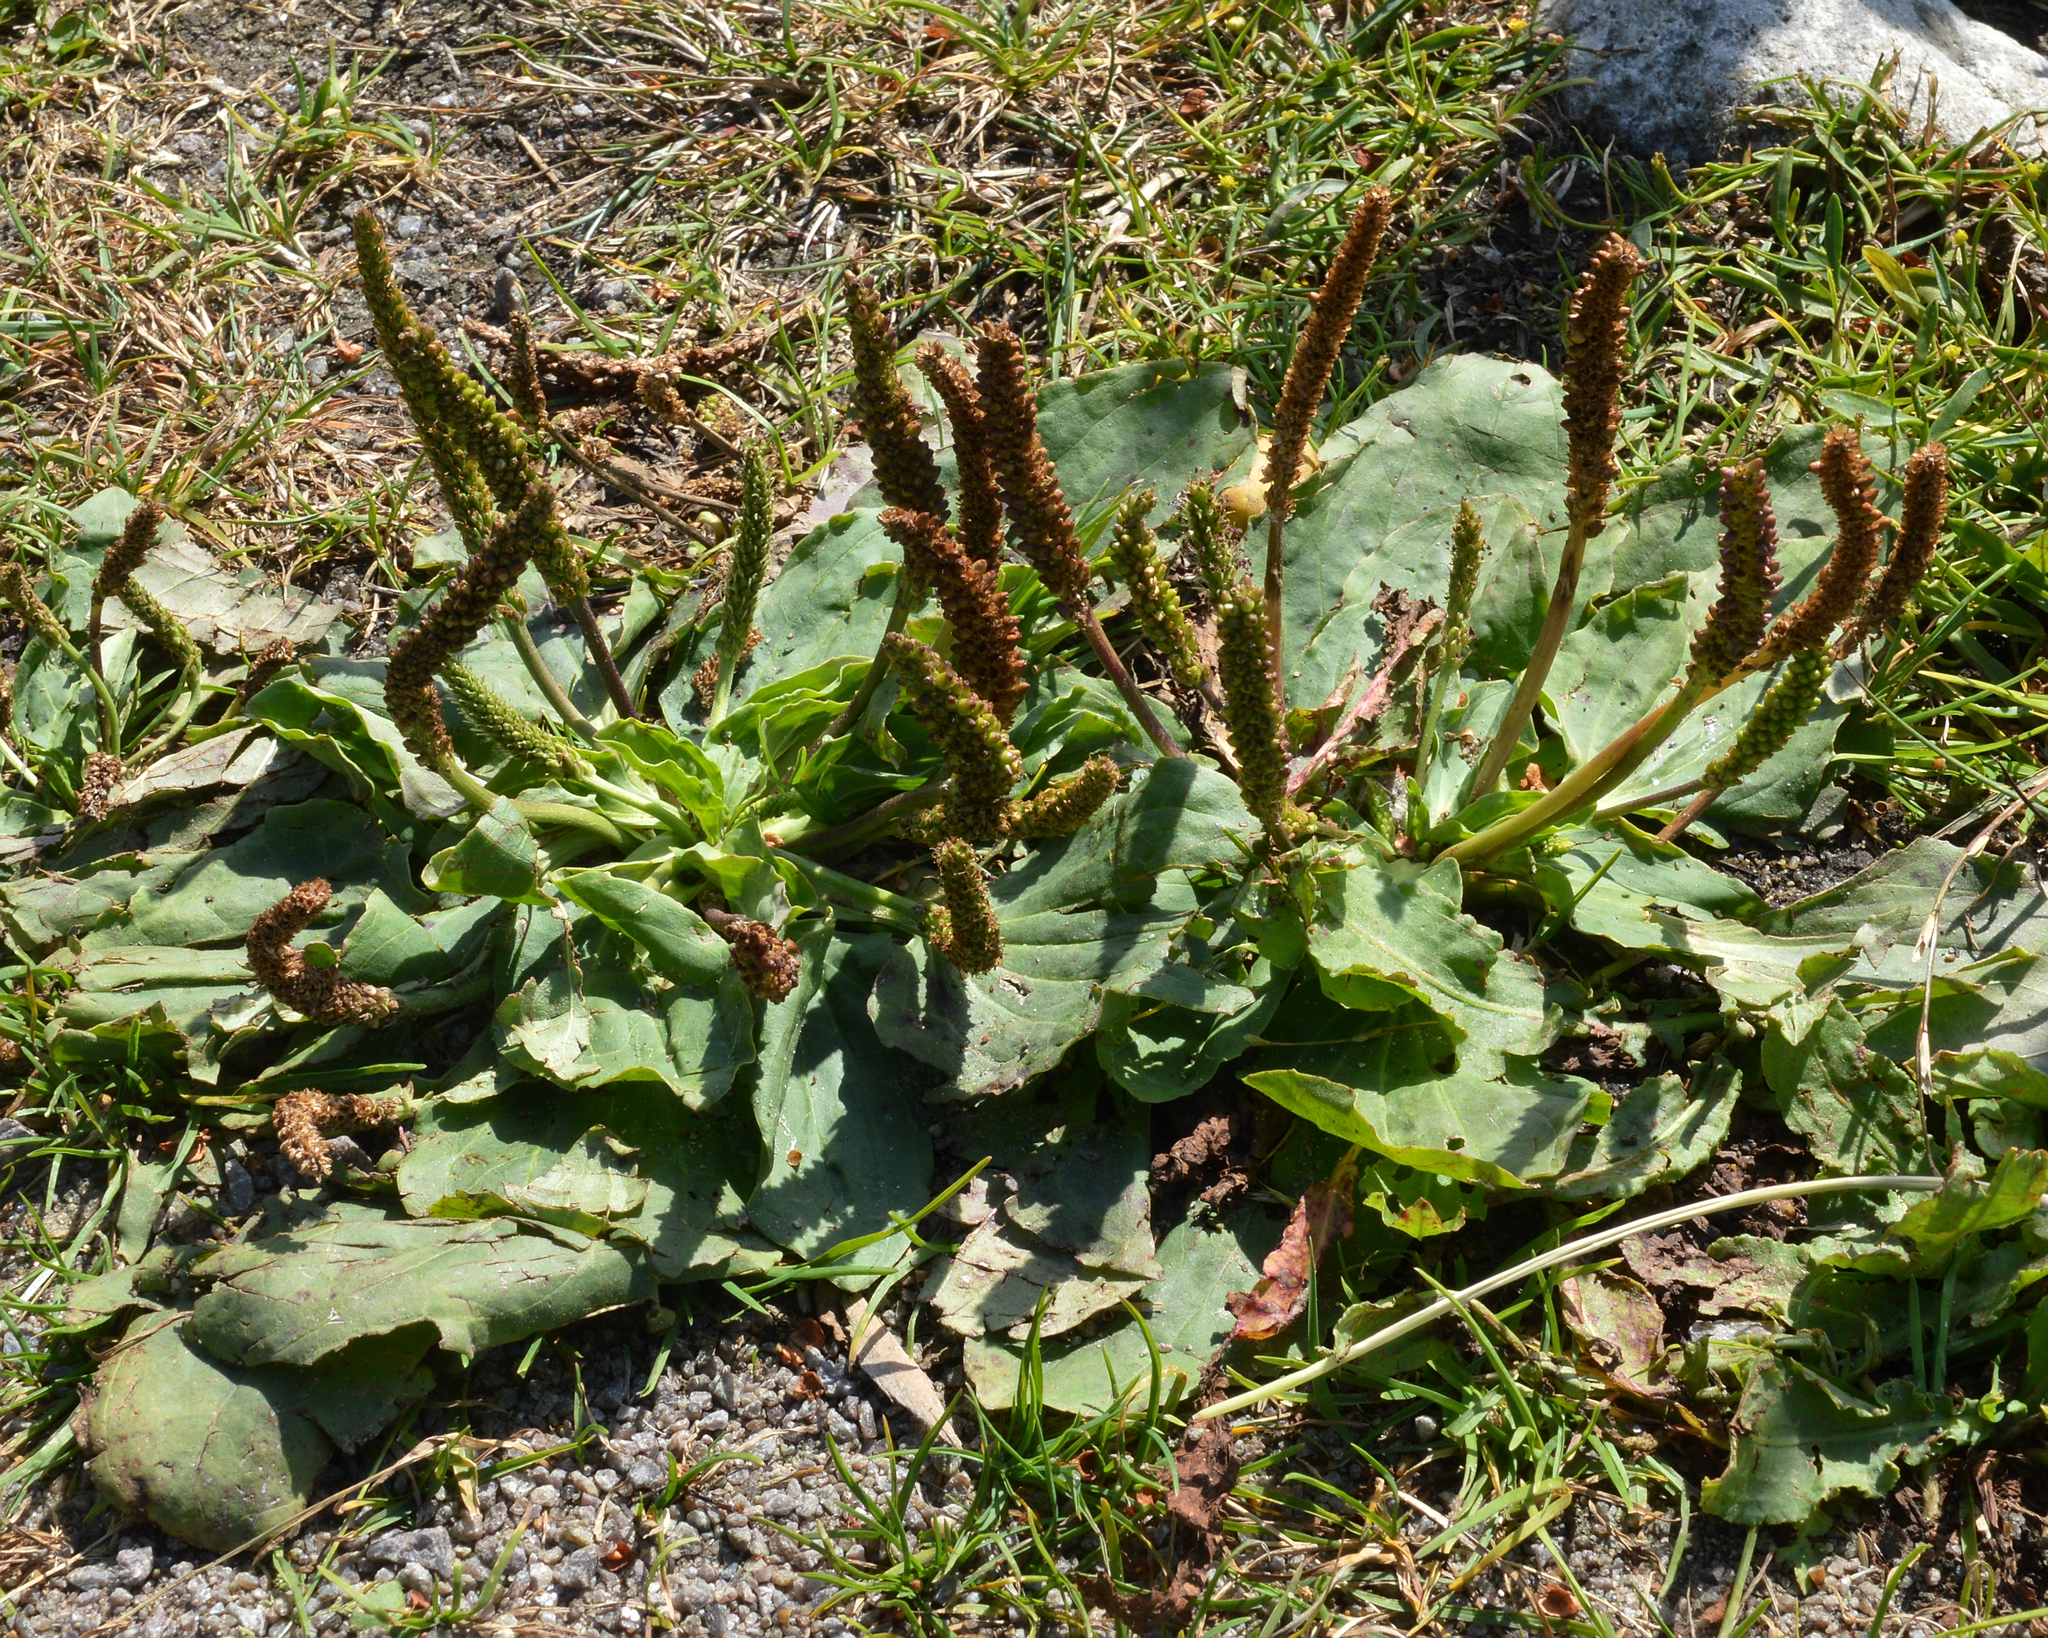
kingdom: Plantae
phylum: Tracheophyta
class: Magnoliopsida
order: Lamiales
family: Plantaginaceae
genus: Plantago
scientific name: Plantago major
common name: Common plantain
